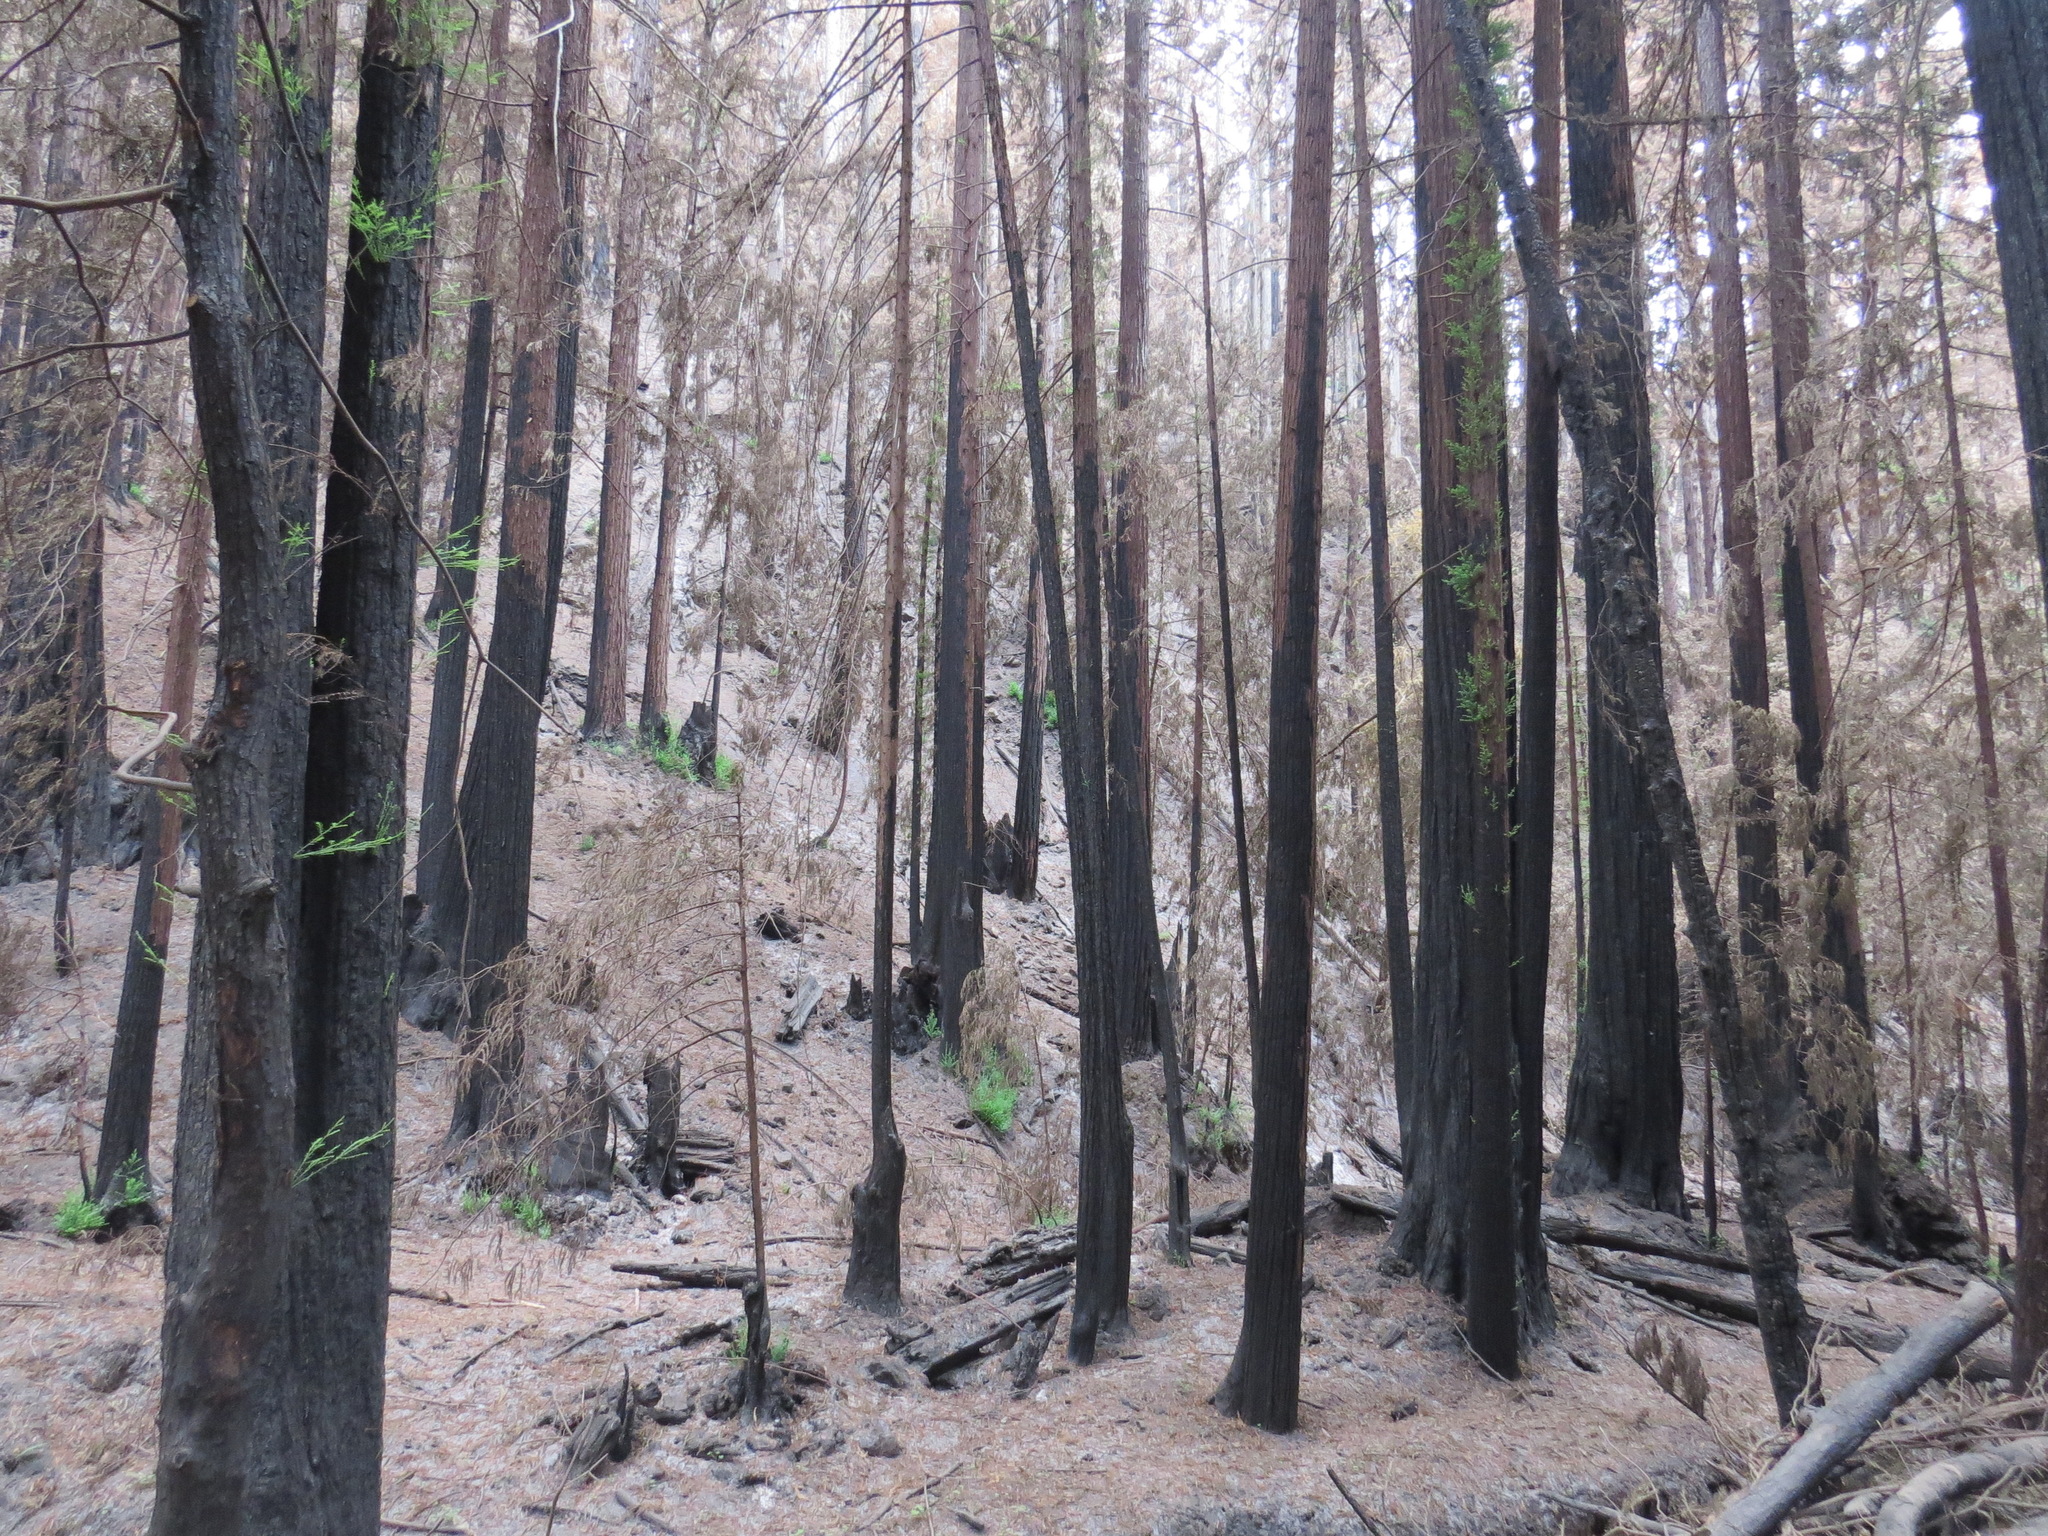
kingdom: Plantae
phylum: Tracheophyta
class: Pinopsida
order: Pinales
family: Cupressaceae
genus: Sequoia
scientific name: Sequoia sempervirens
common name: Coast redwood
